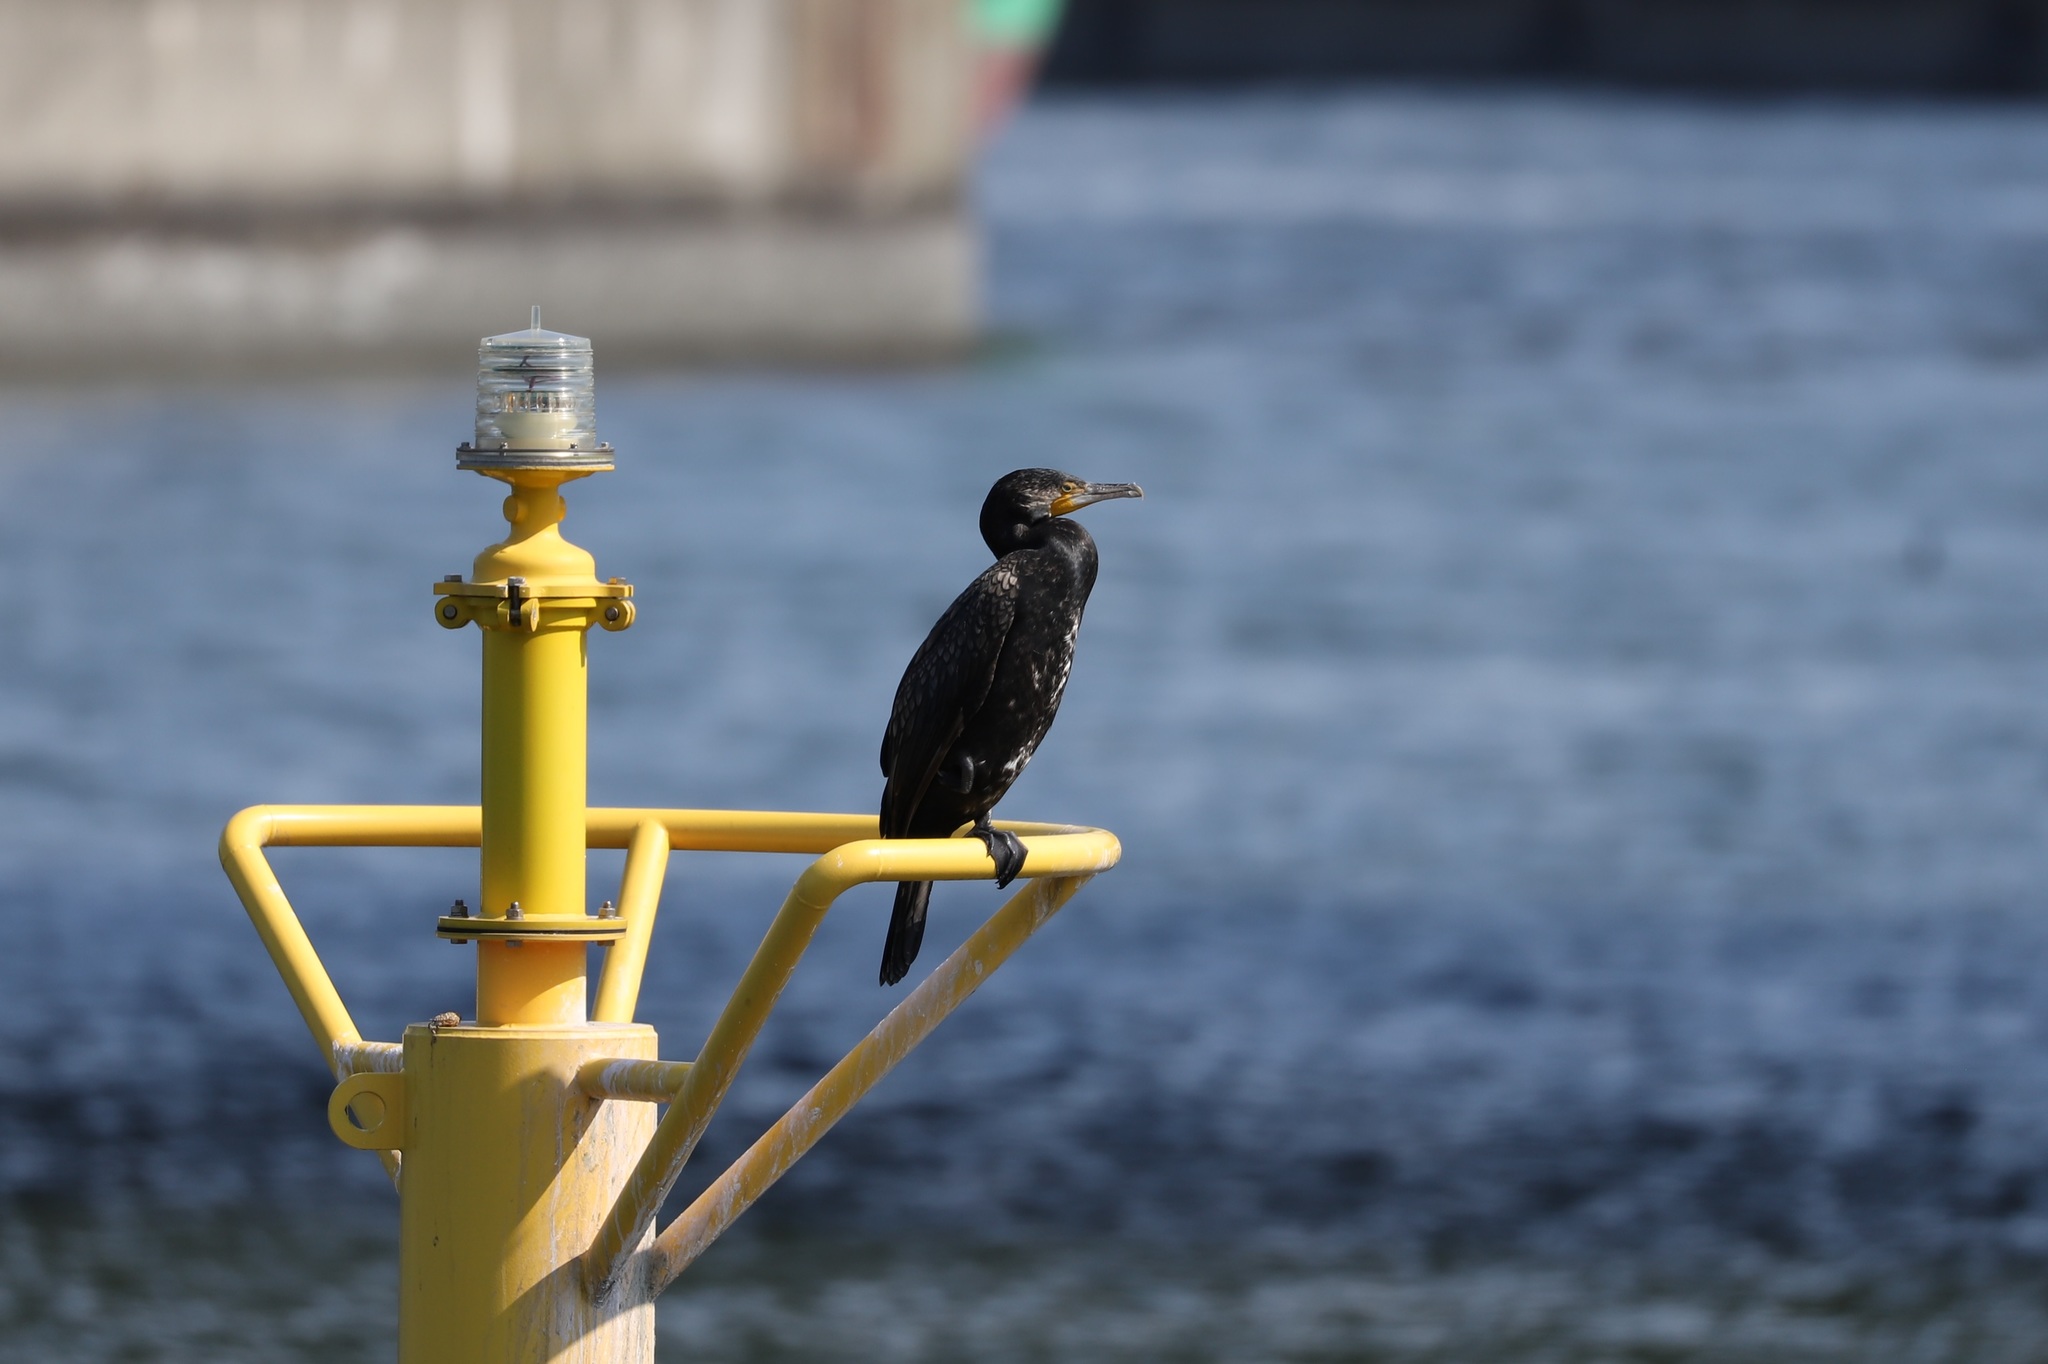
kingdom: Animalia
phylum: Chordata
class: Aves
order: Suliformes
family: Phalacrocoracidae
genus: Phalacrocorax
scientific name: Phalacrocorax carbo
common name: Great cormorant
